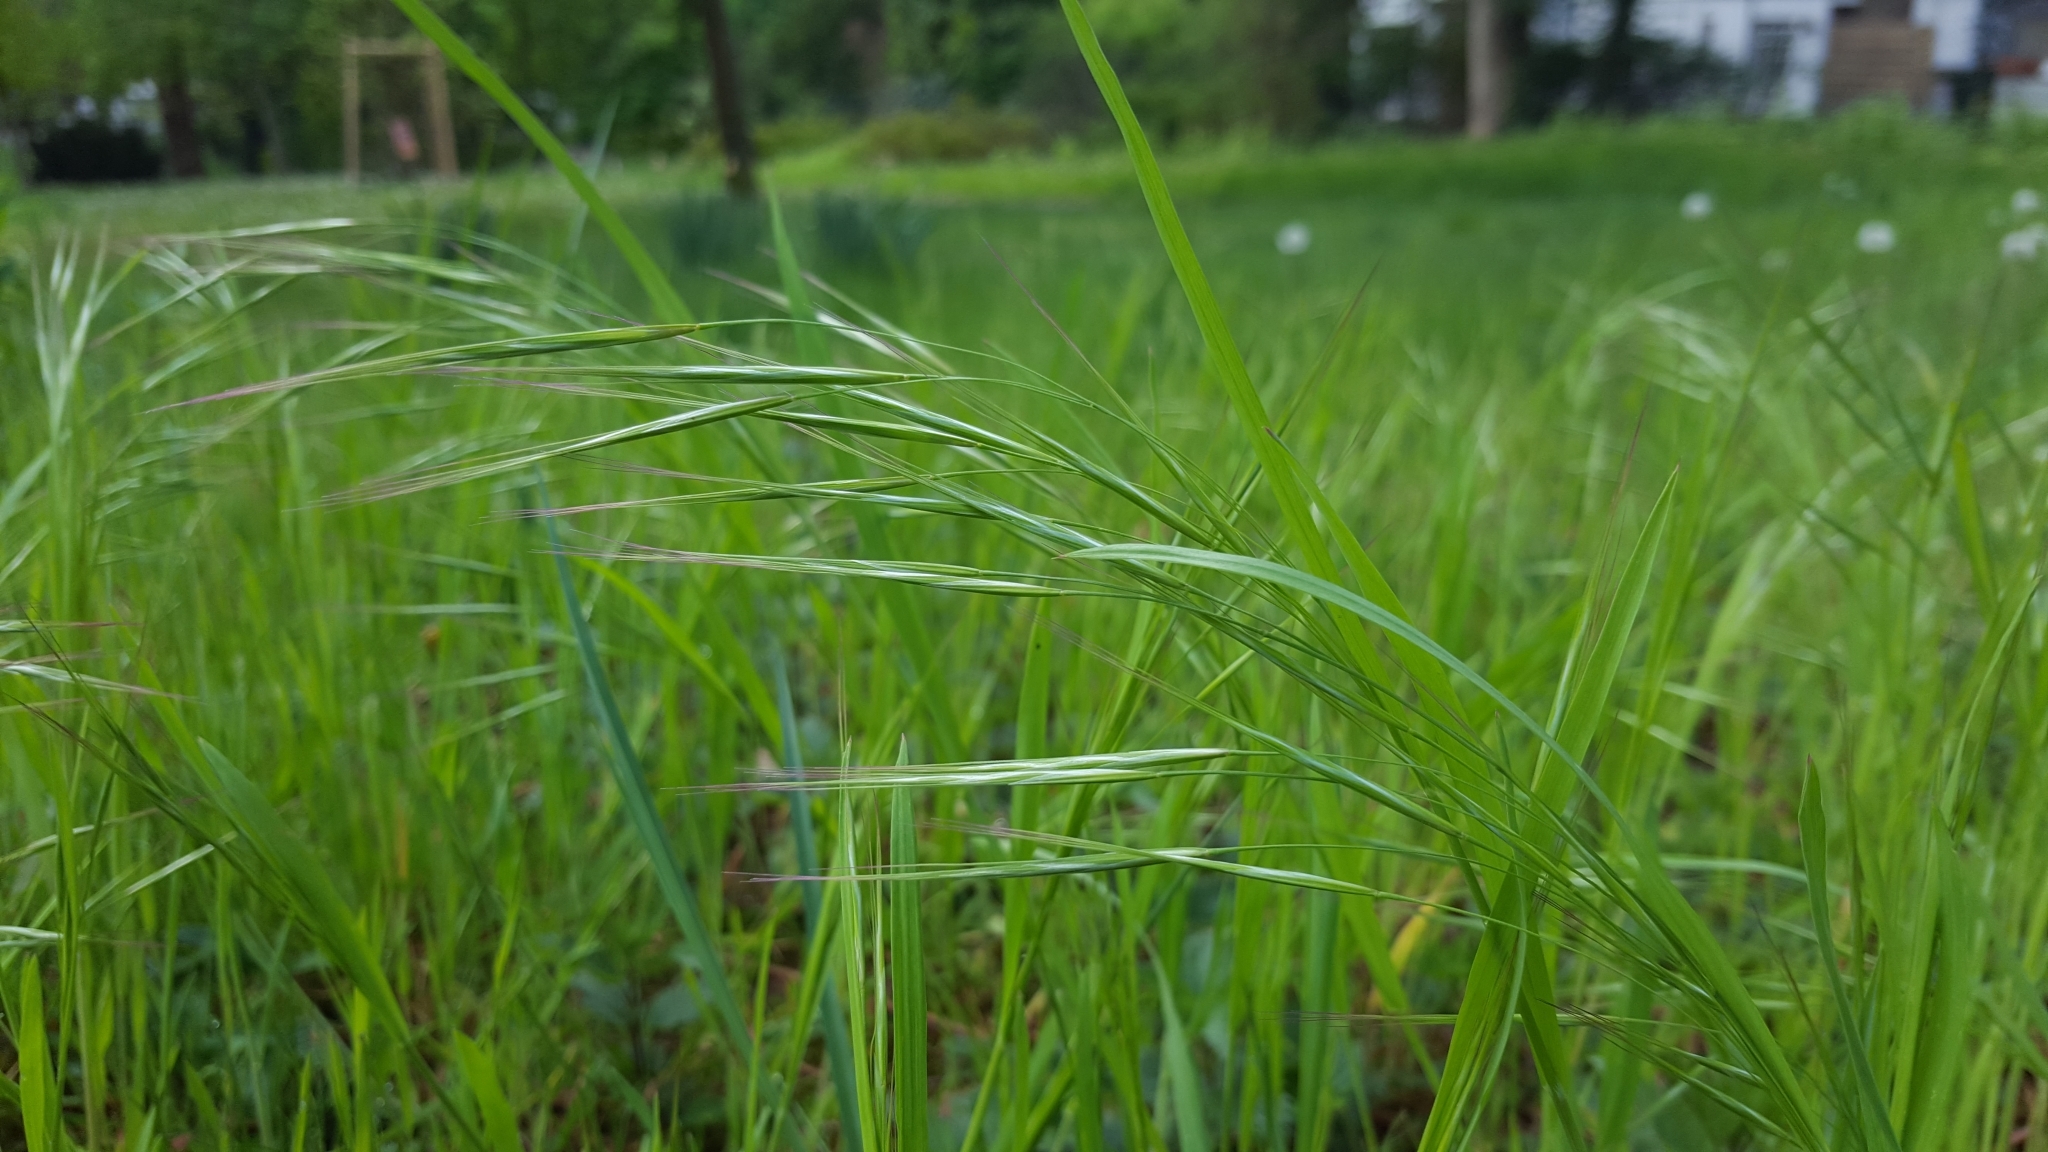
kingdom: Plantae
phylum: Tracheophyta
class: Liliopsida
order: Poales
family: Poaceae
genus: Bromus
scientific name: Bromus sterilis
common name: Poverty brome
